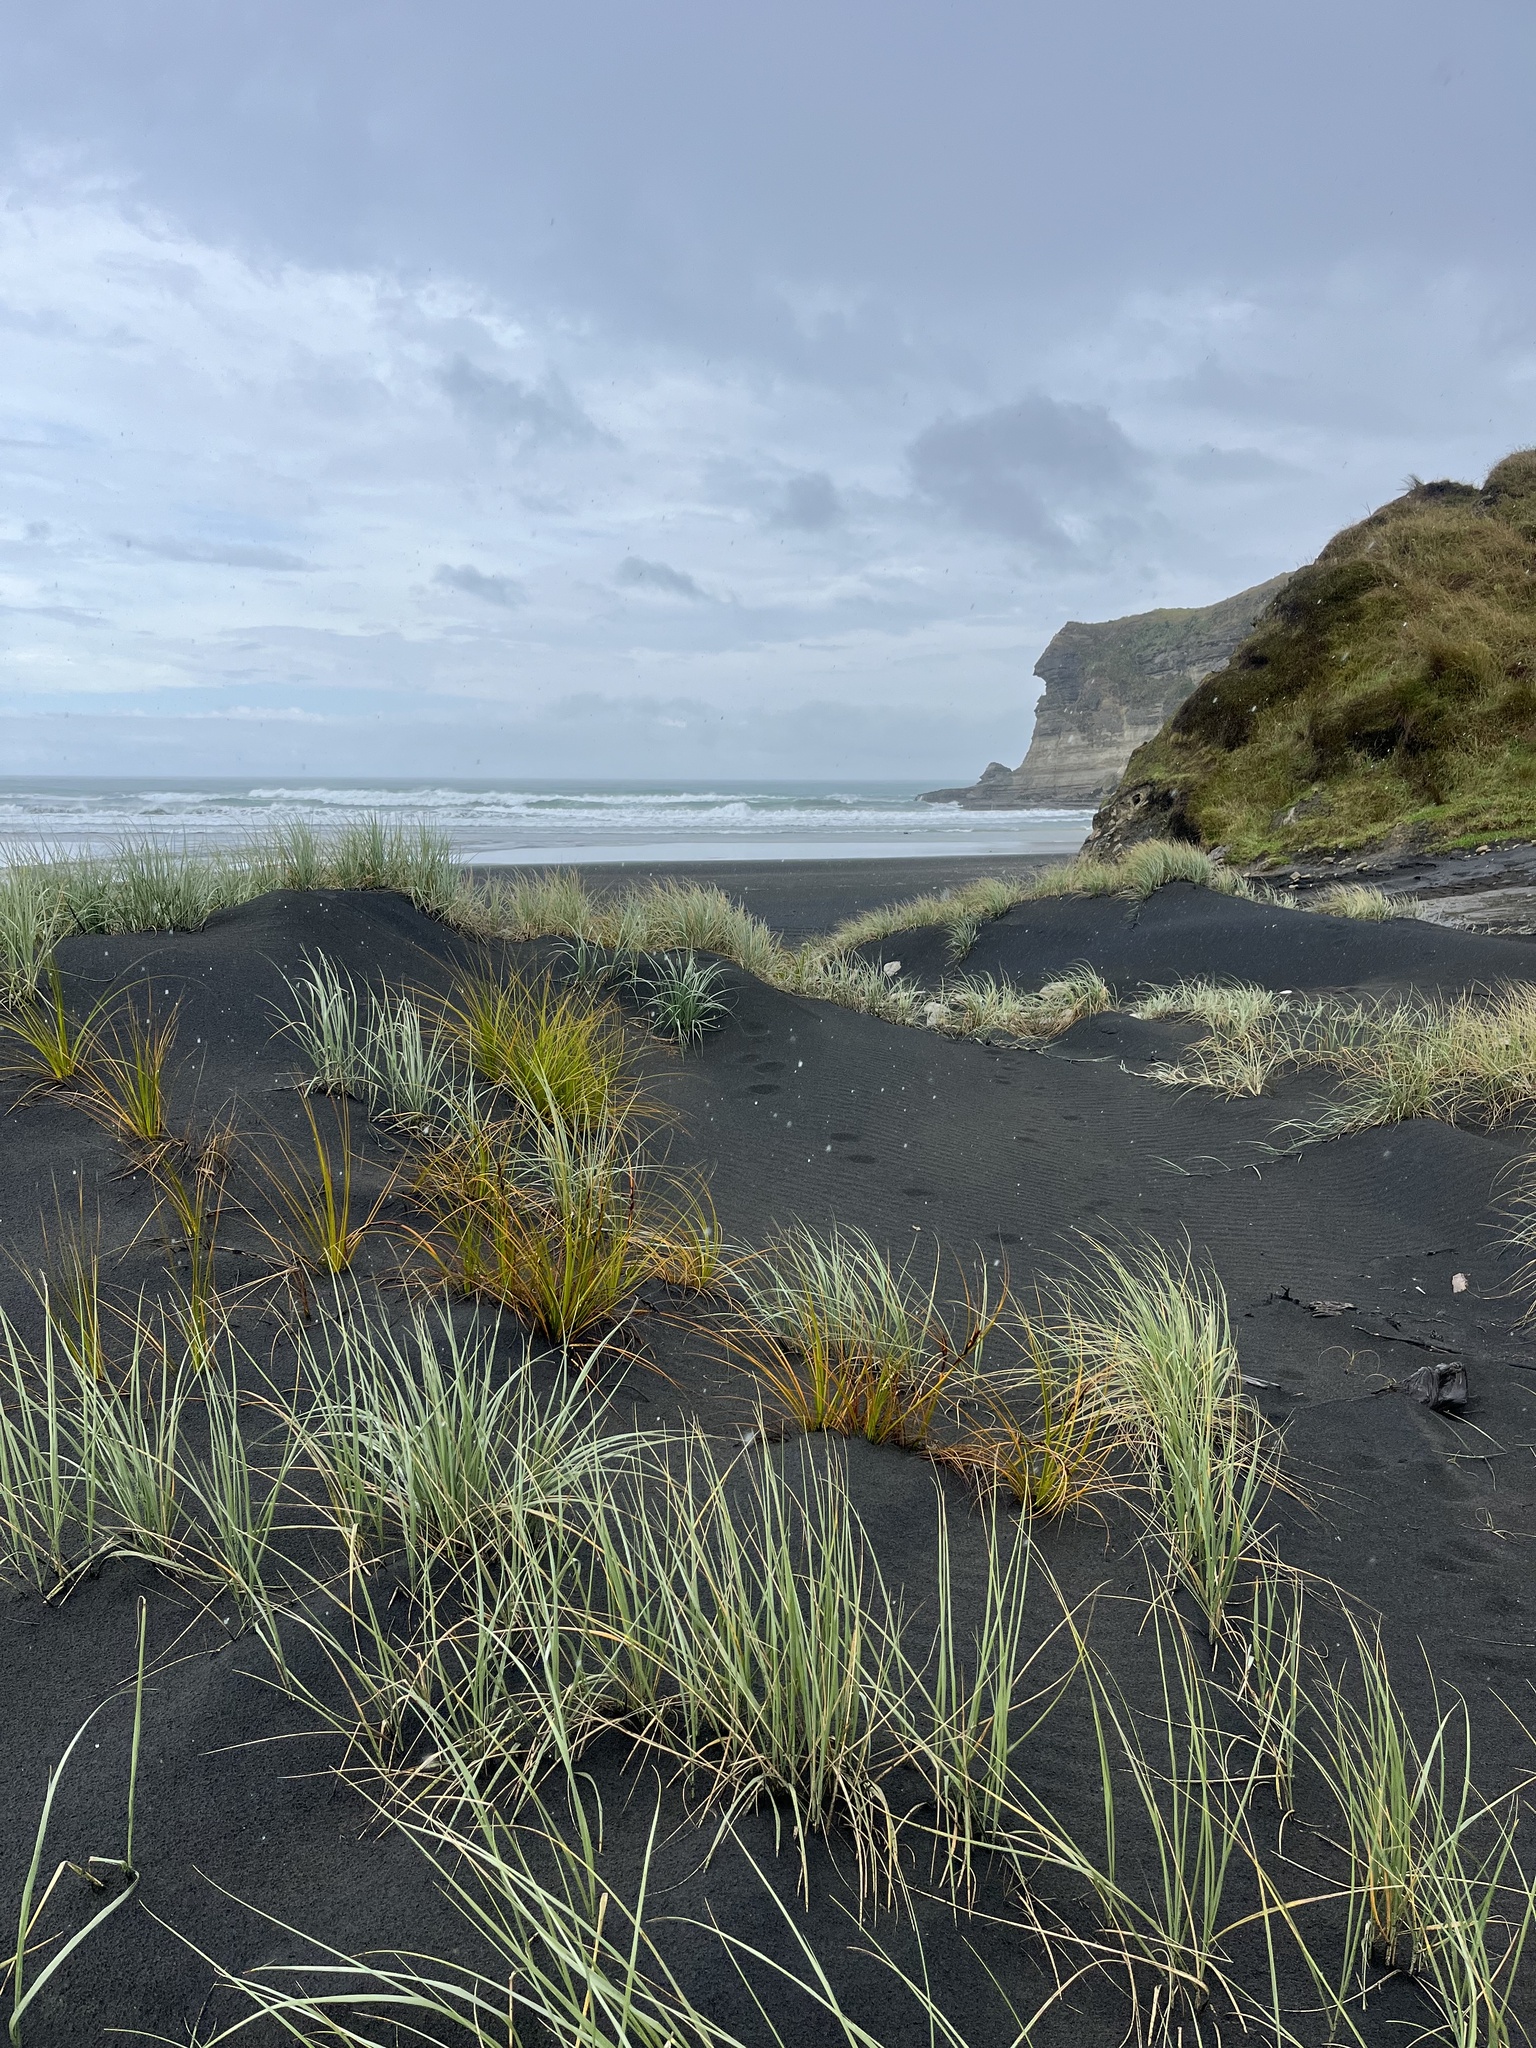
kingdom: Plantae
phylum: Tracheophyta
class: Liliopsida
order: Poales
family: Cyperaceae
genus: Ficinia
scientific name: Ficinia spiralis
